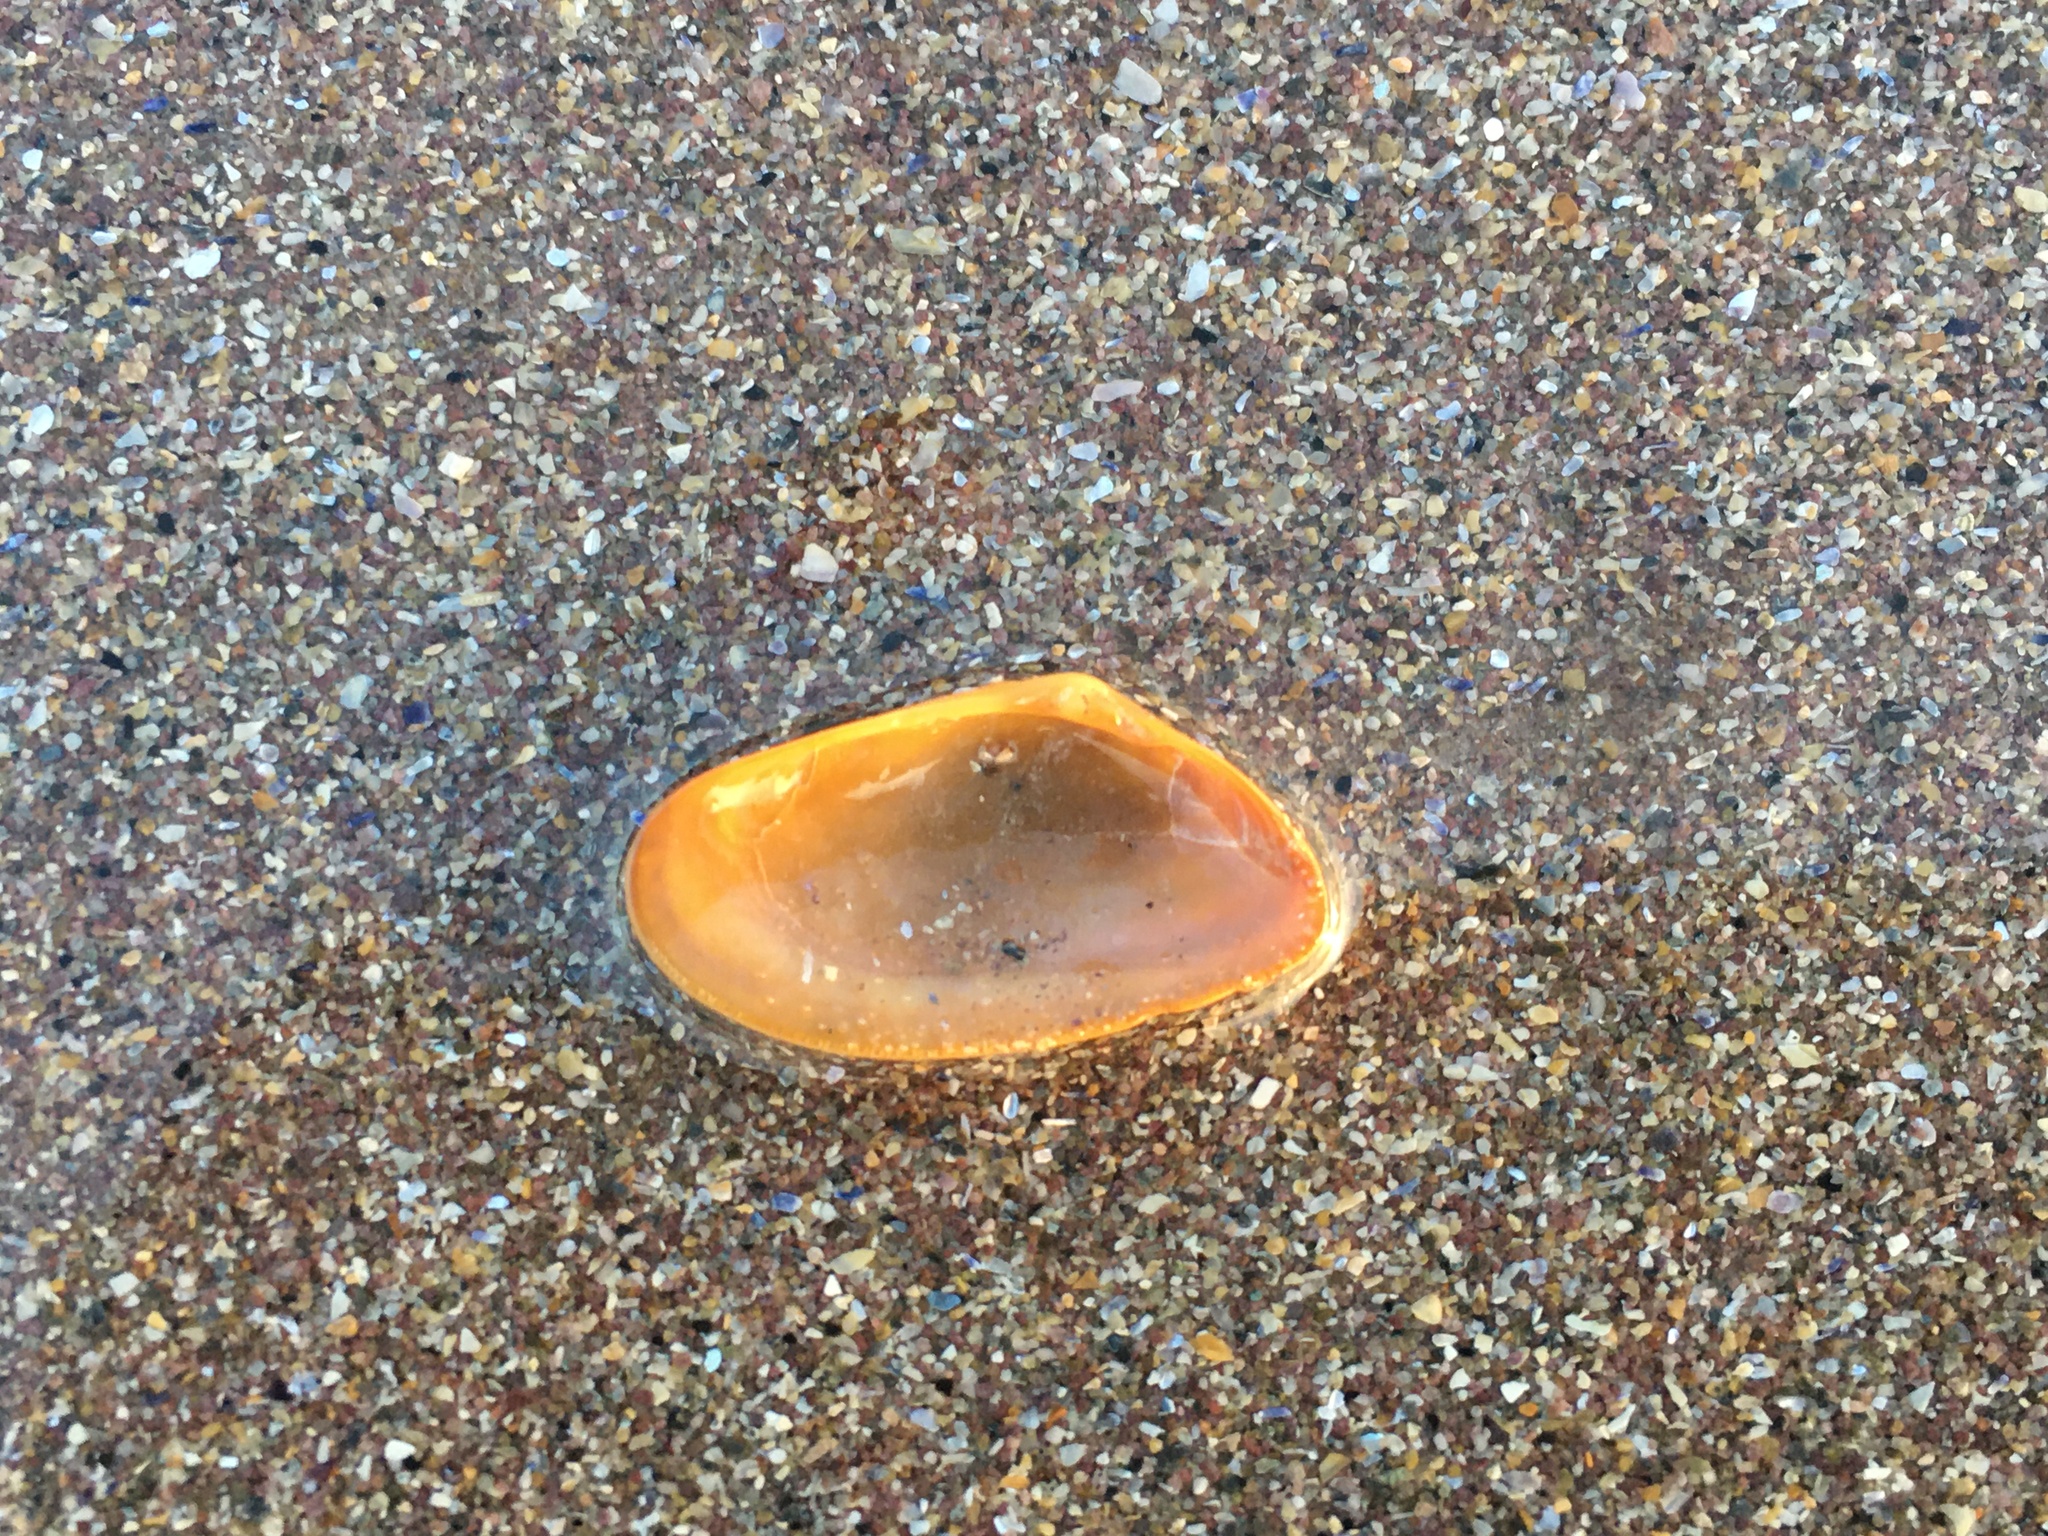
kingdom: Animalia
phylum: Mollusca
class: Bivalvia
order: Cardiida
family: Donacidae
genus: Donax
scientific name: Donax vittatus
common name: Banded wedge-shell
